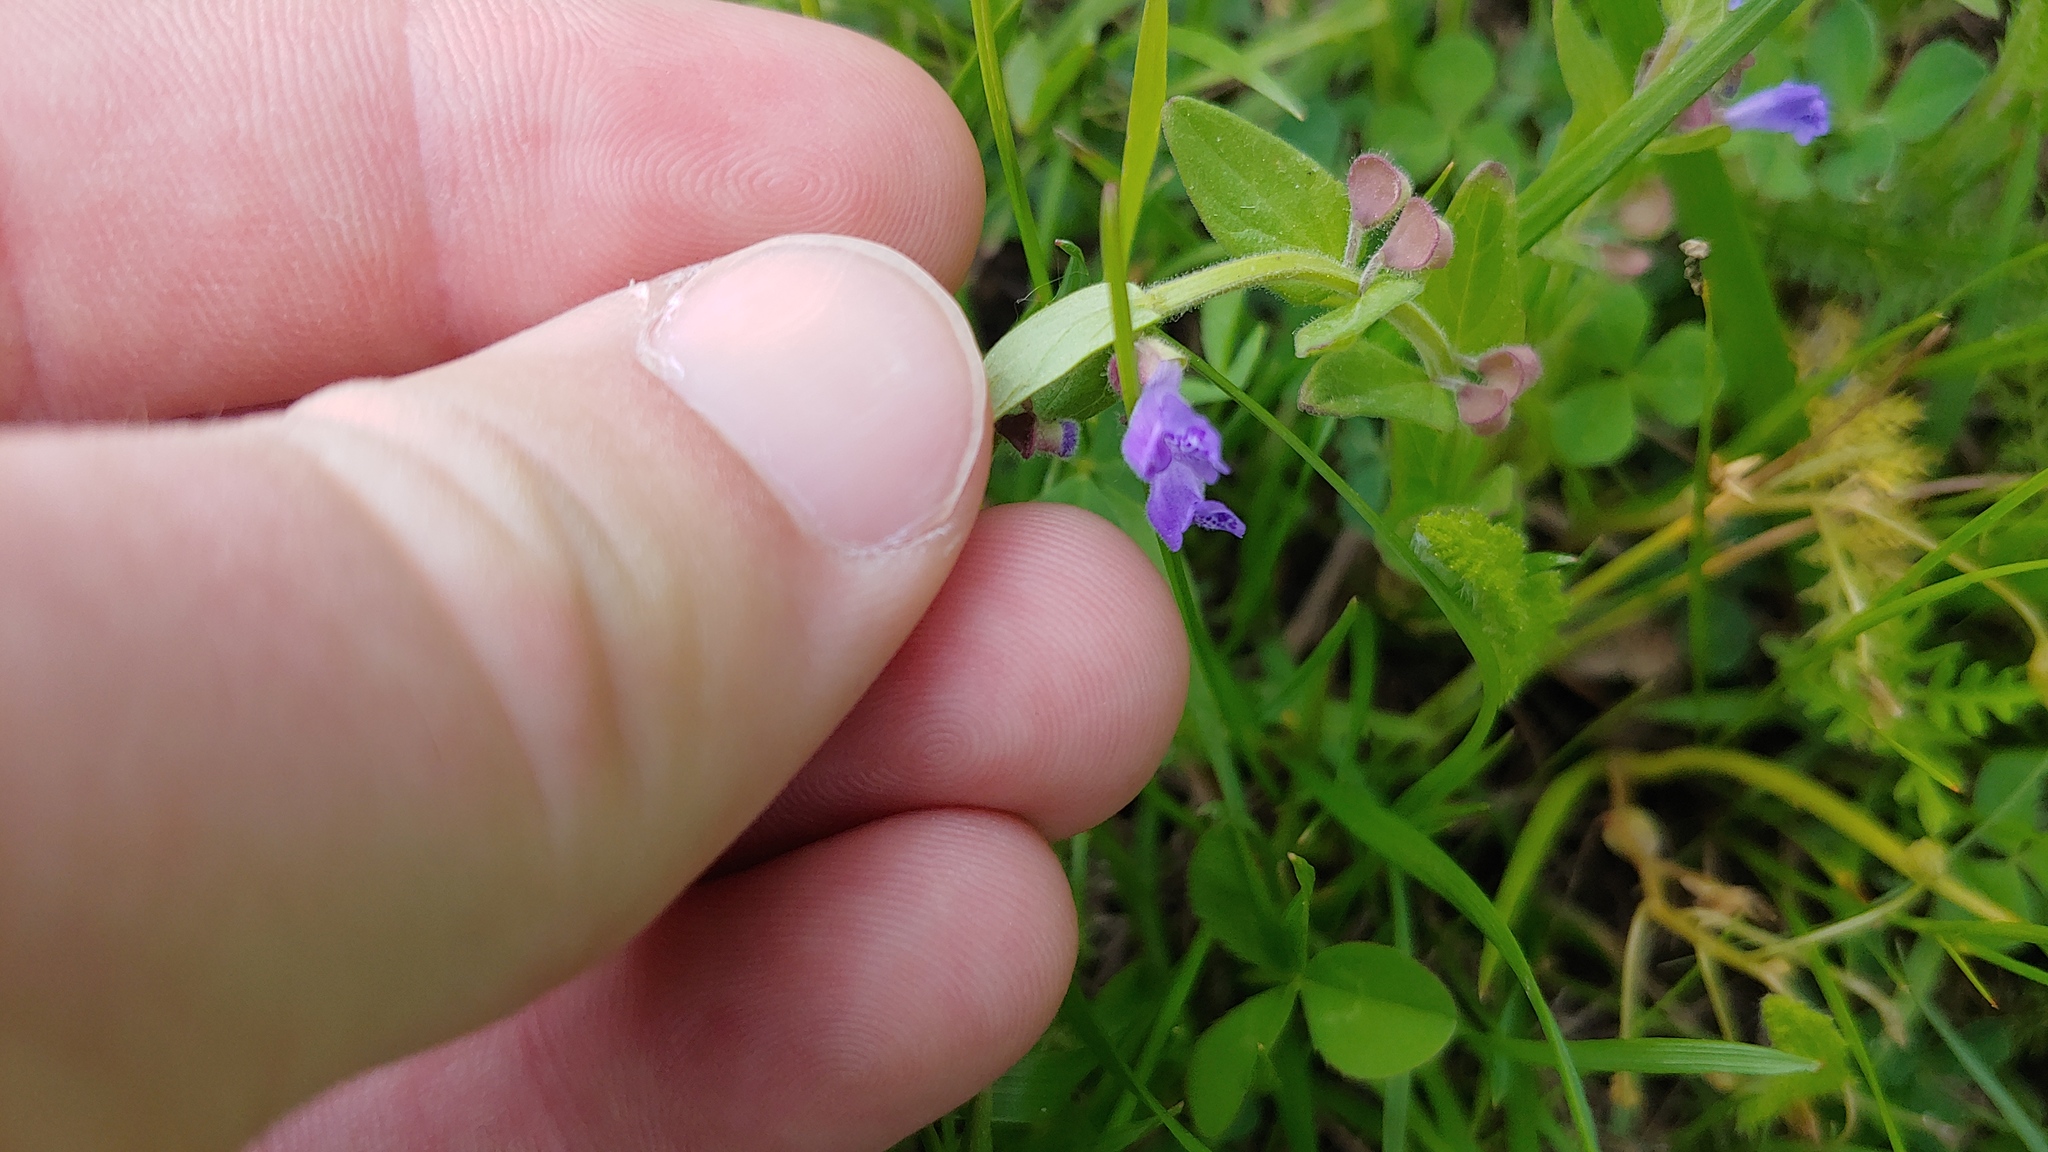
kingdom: Plantae
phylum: Tracheophyta
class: Magnoliopsida
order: Lamiales
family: Lamiaceae
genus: Scutellaria
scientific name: Scutellaria parvula
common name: Little scullcap
